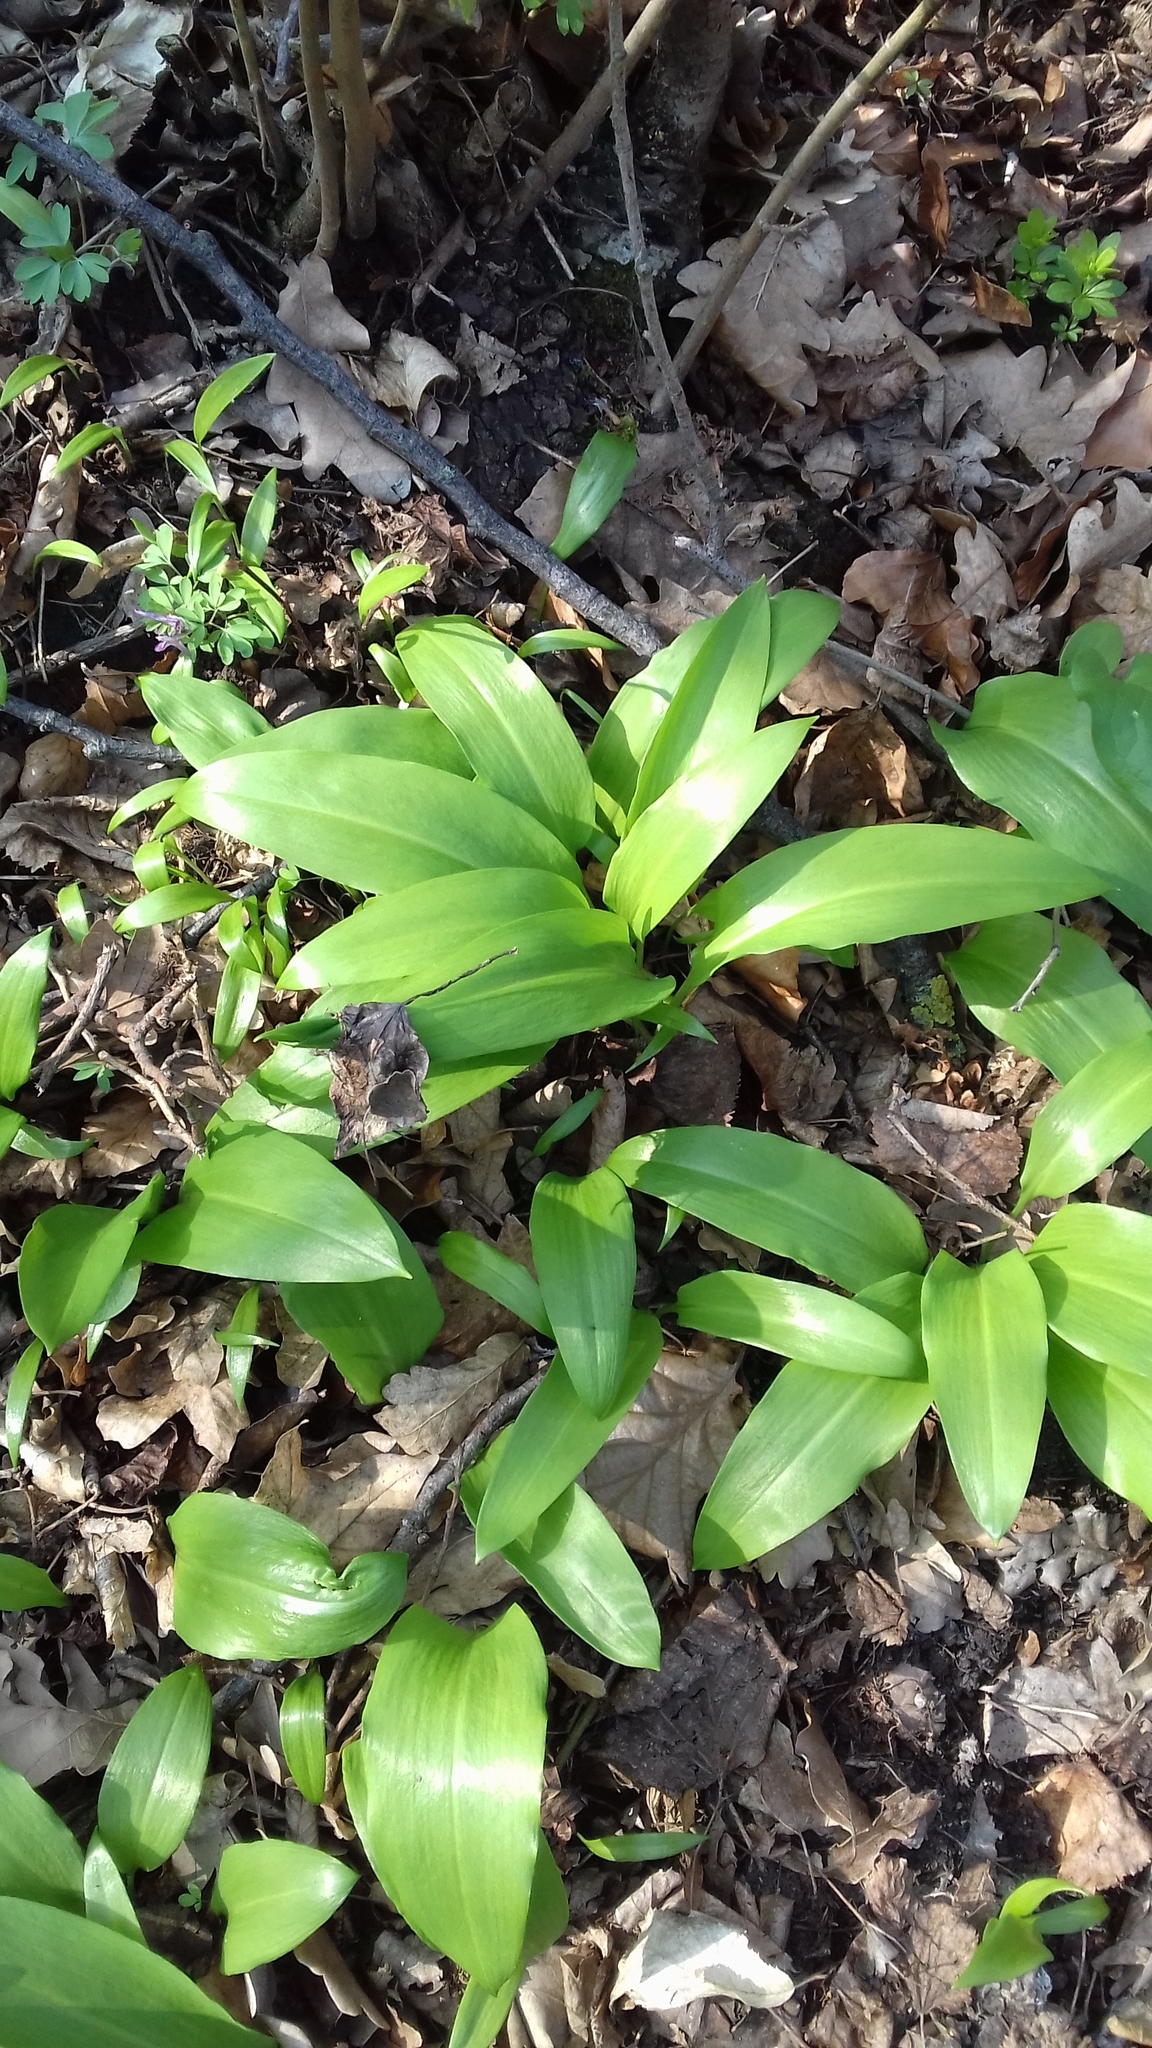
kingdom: Plantae
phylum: Tracheophyta
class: Liliopsida
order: Asparagales
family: Amaryllidaceae
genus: Allium
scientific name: Allium ursinum
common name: Ramsons
